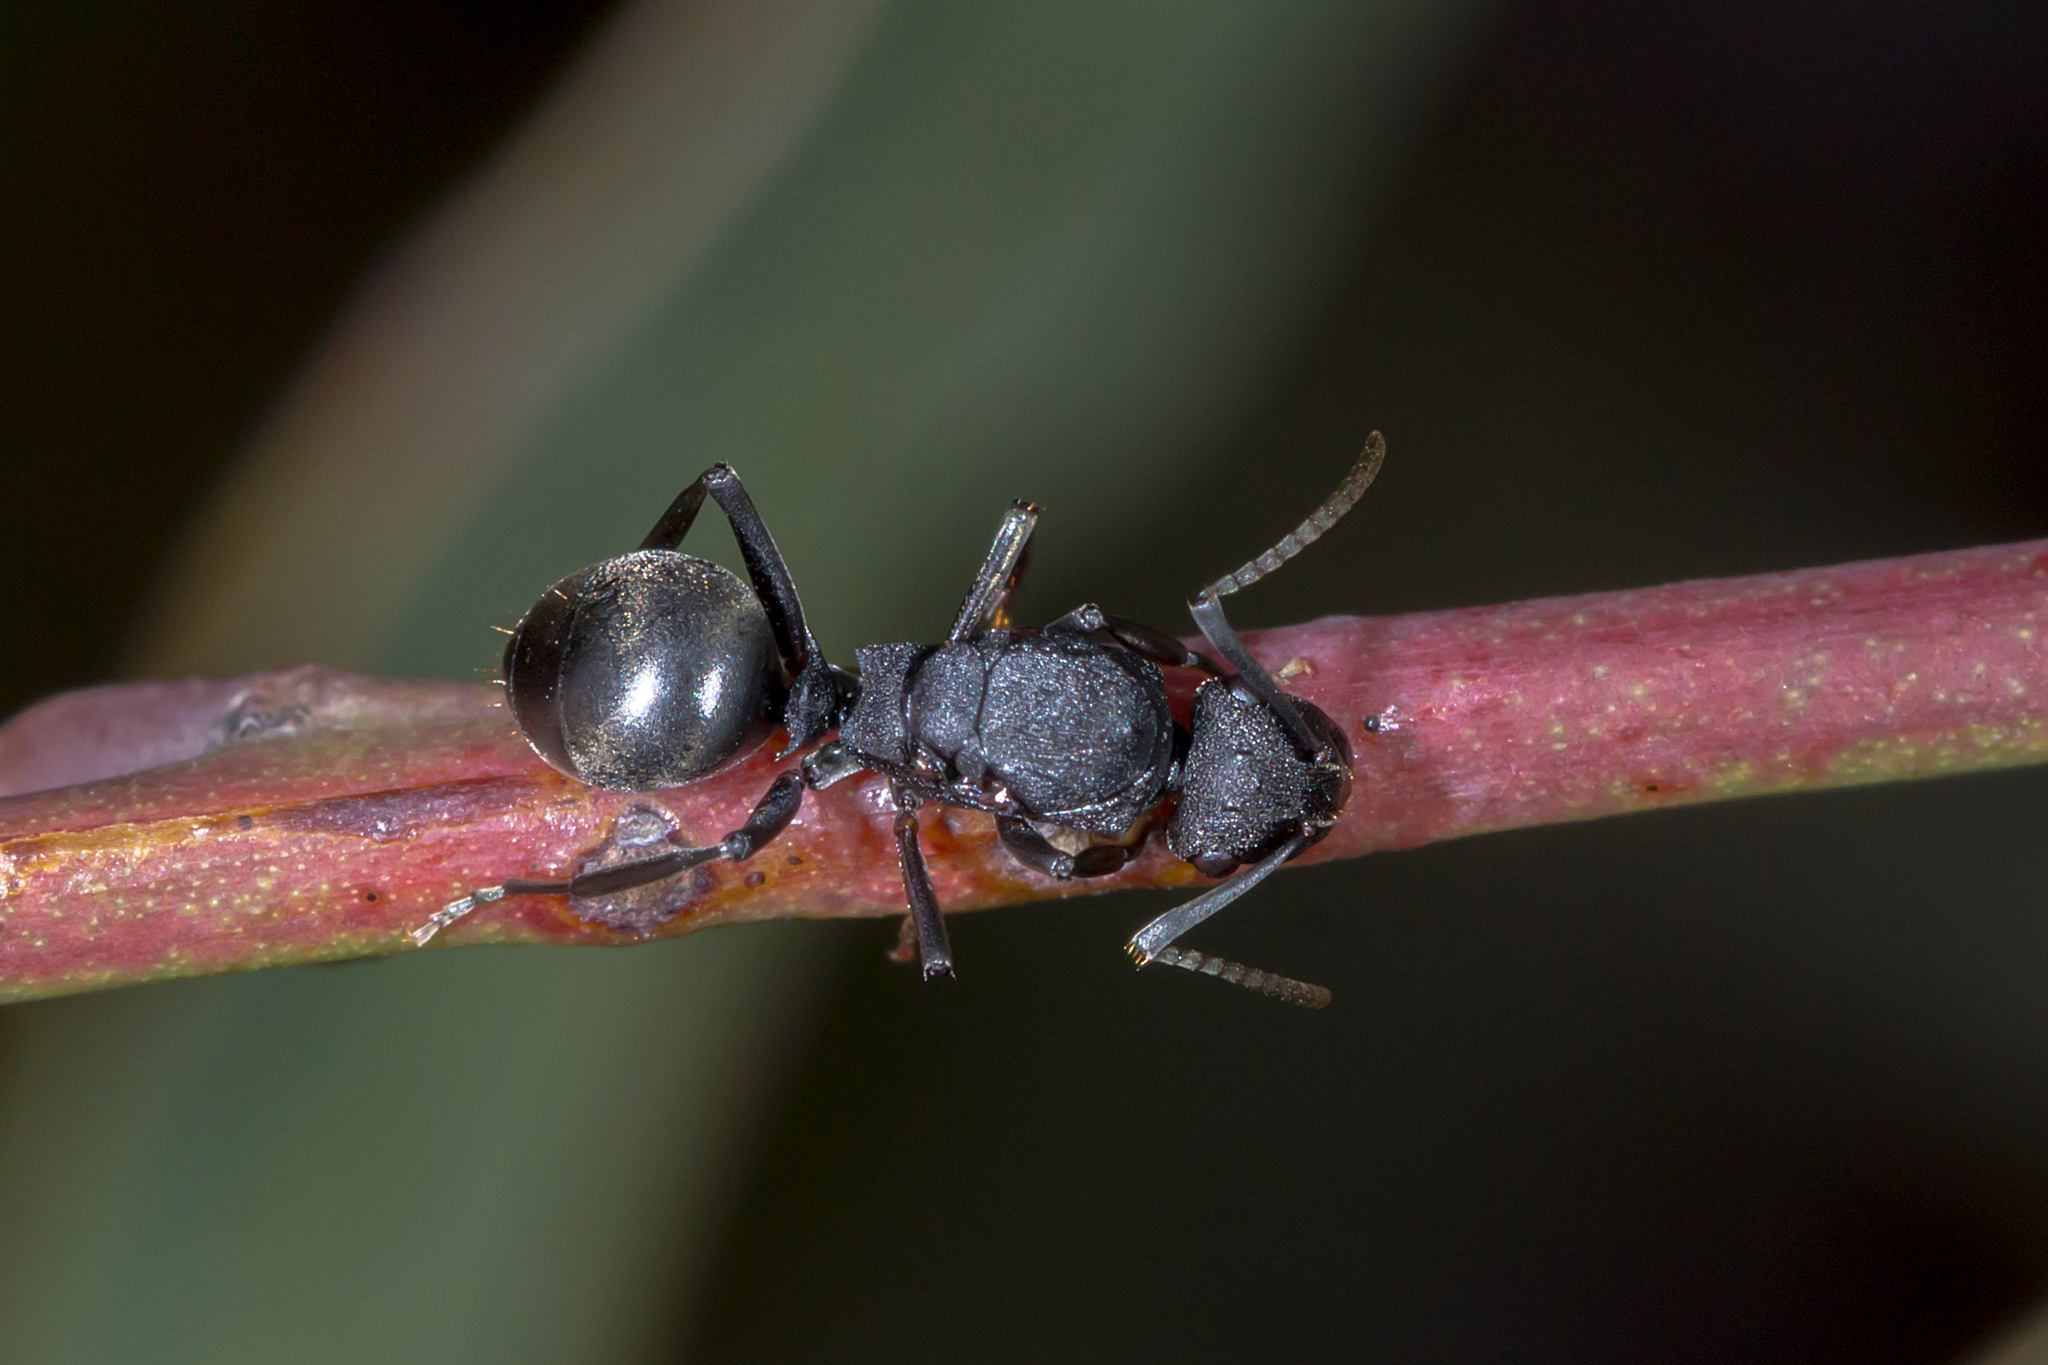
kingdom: Animalia
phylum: Arthropoda
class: Insecta
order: Hymenoptera
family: Formicidae
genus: Polyrhachis
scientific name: Polyrhachis phryne
